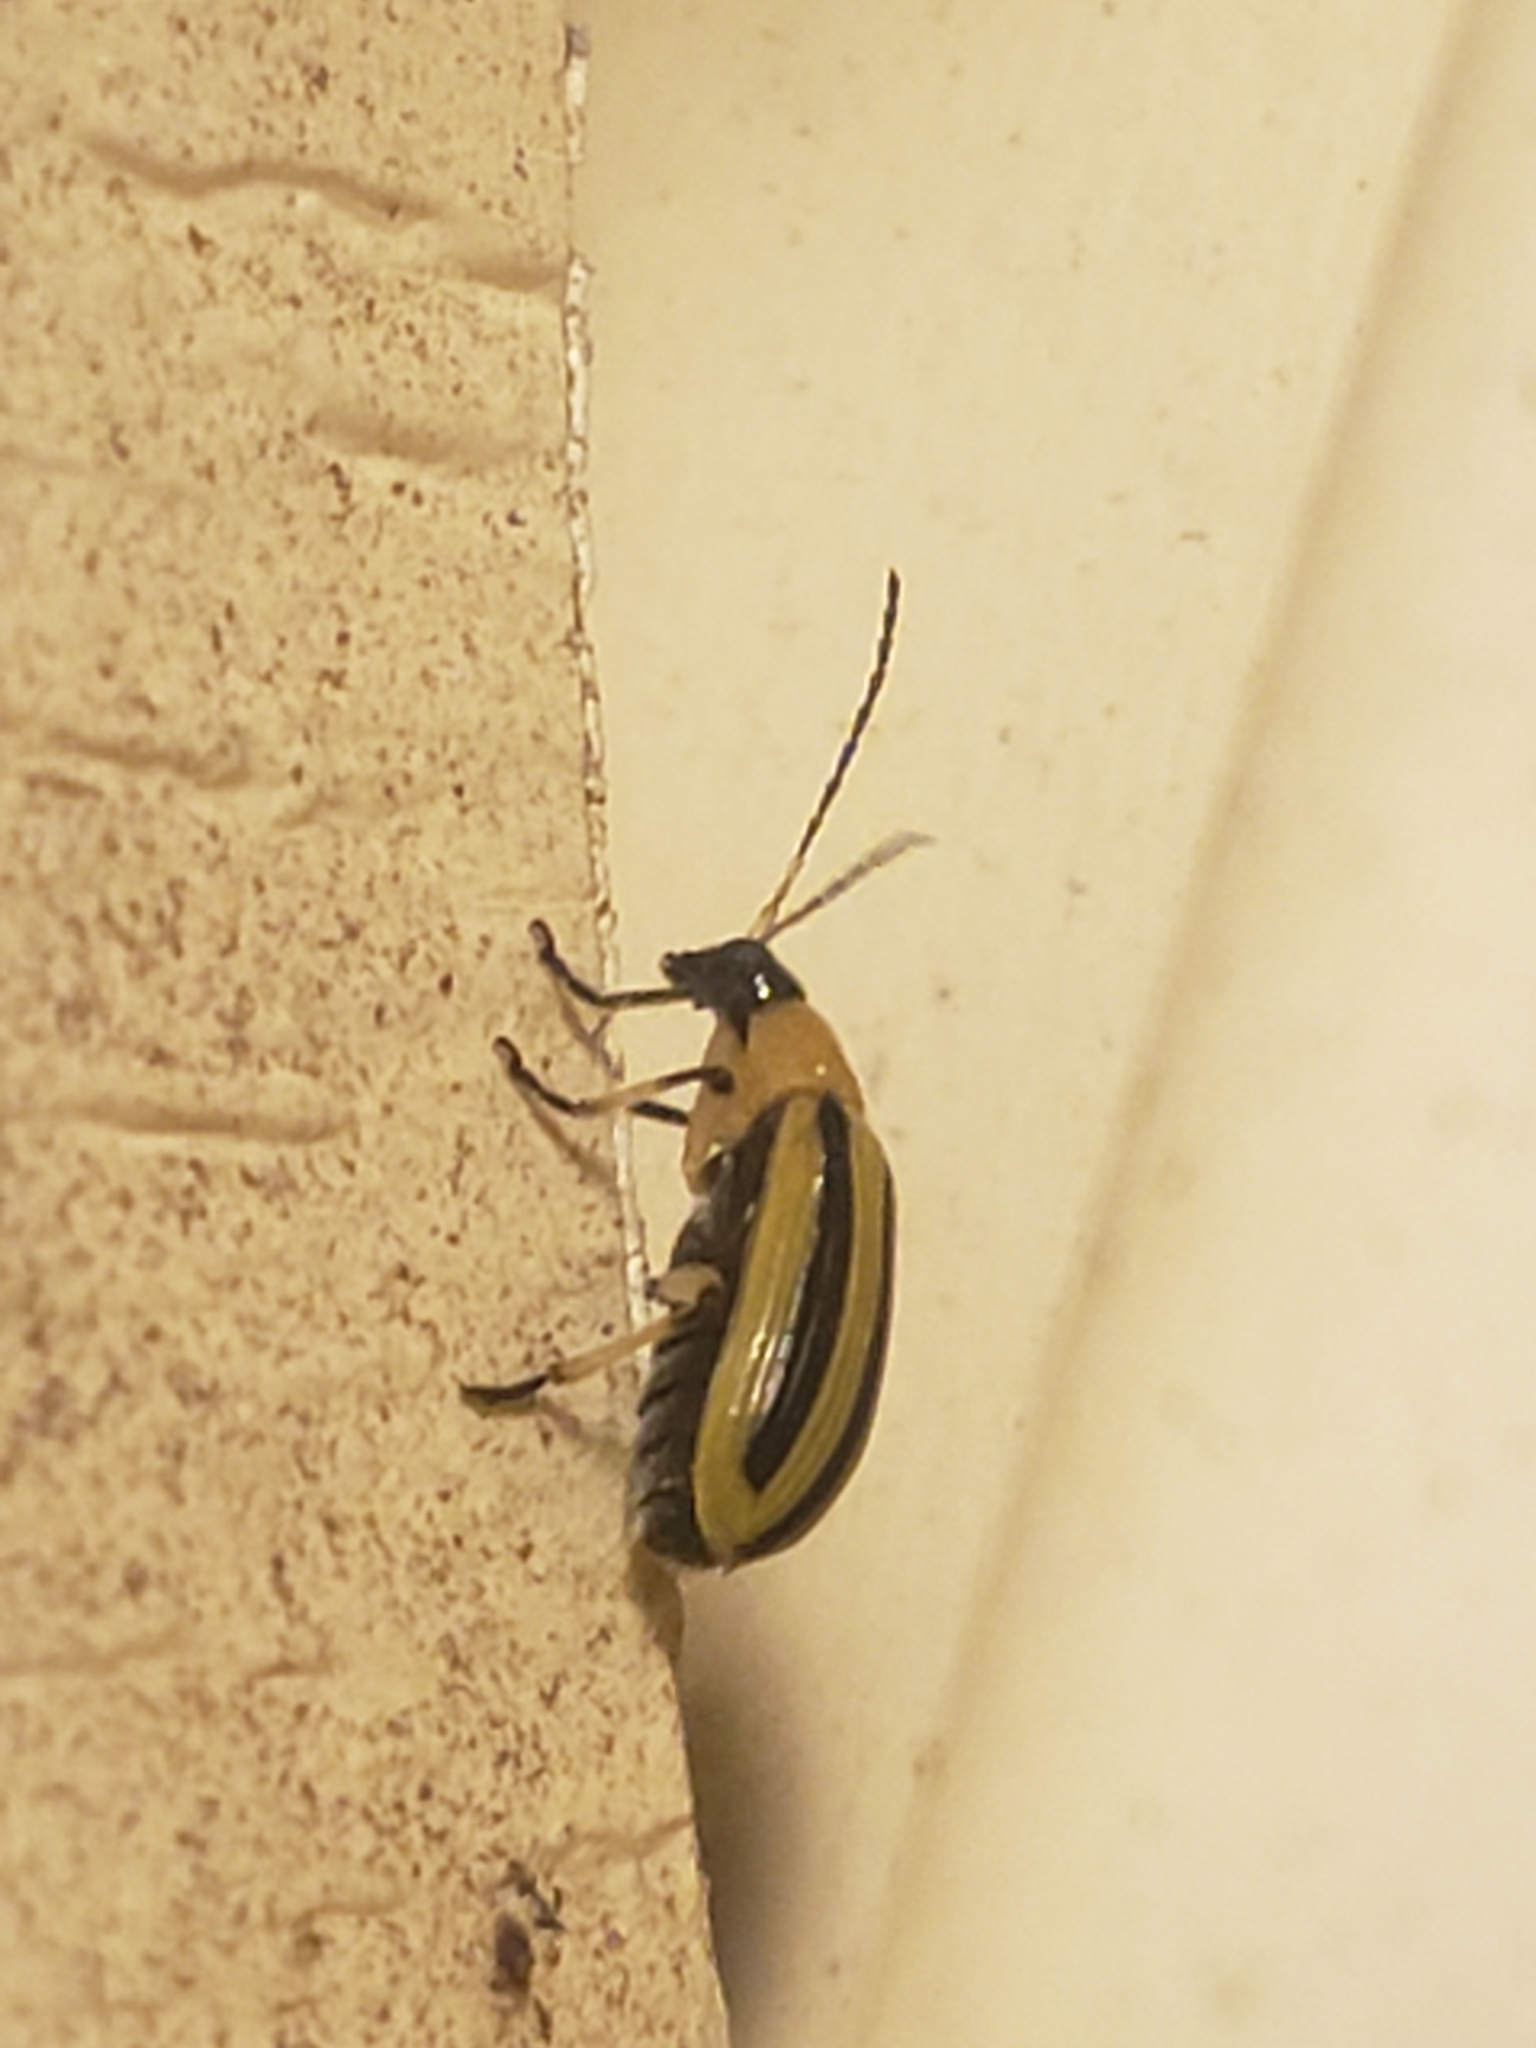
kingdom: Animalia
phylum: Arthropoda
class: Insecta
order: Coleoptera
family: Chrysomelidae
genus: Acalymma
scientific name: Acalymma vittatum
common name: Striped cucumber beetle
